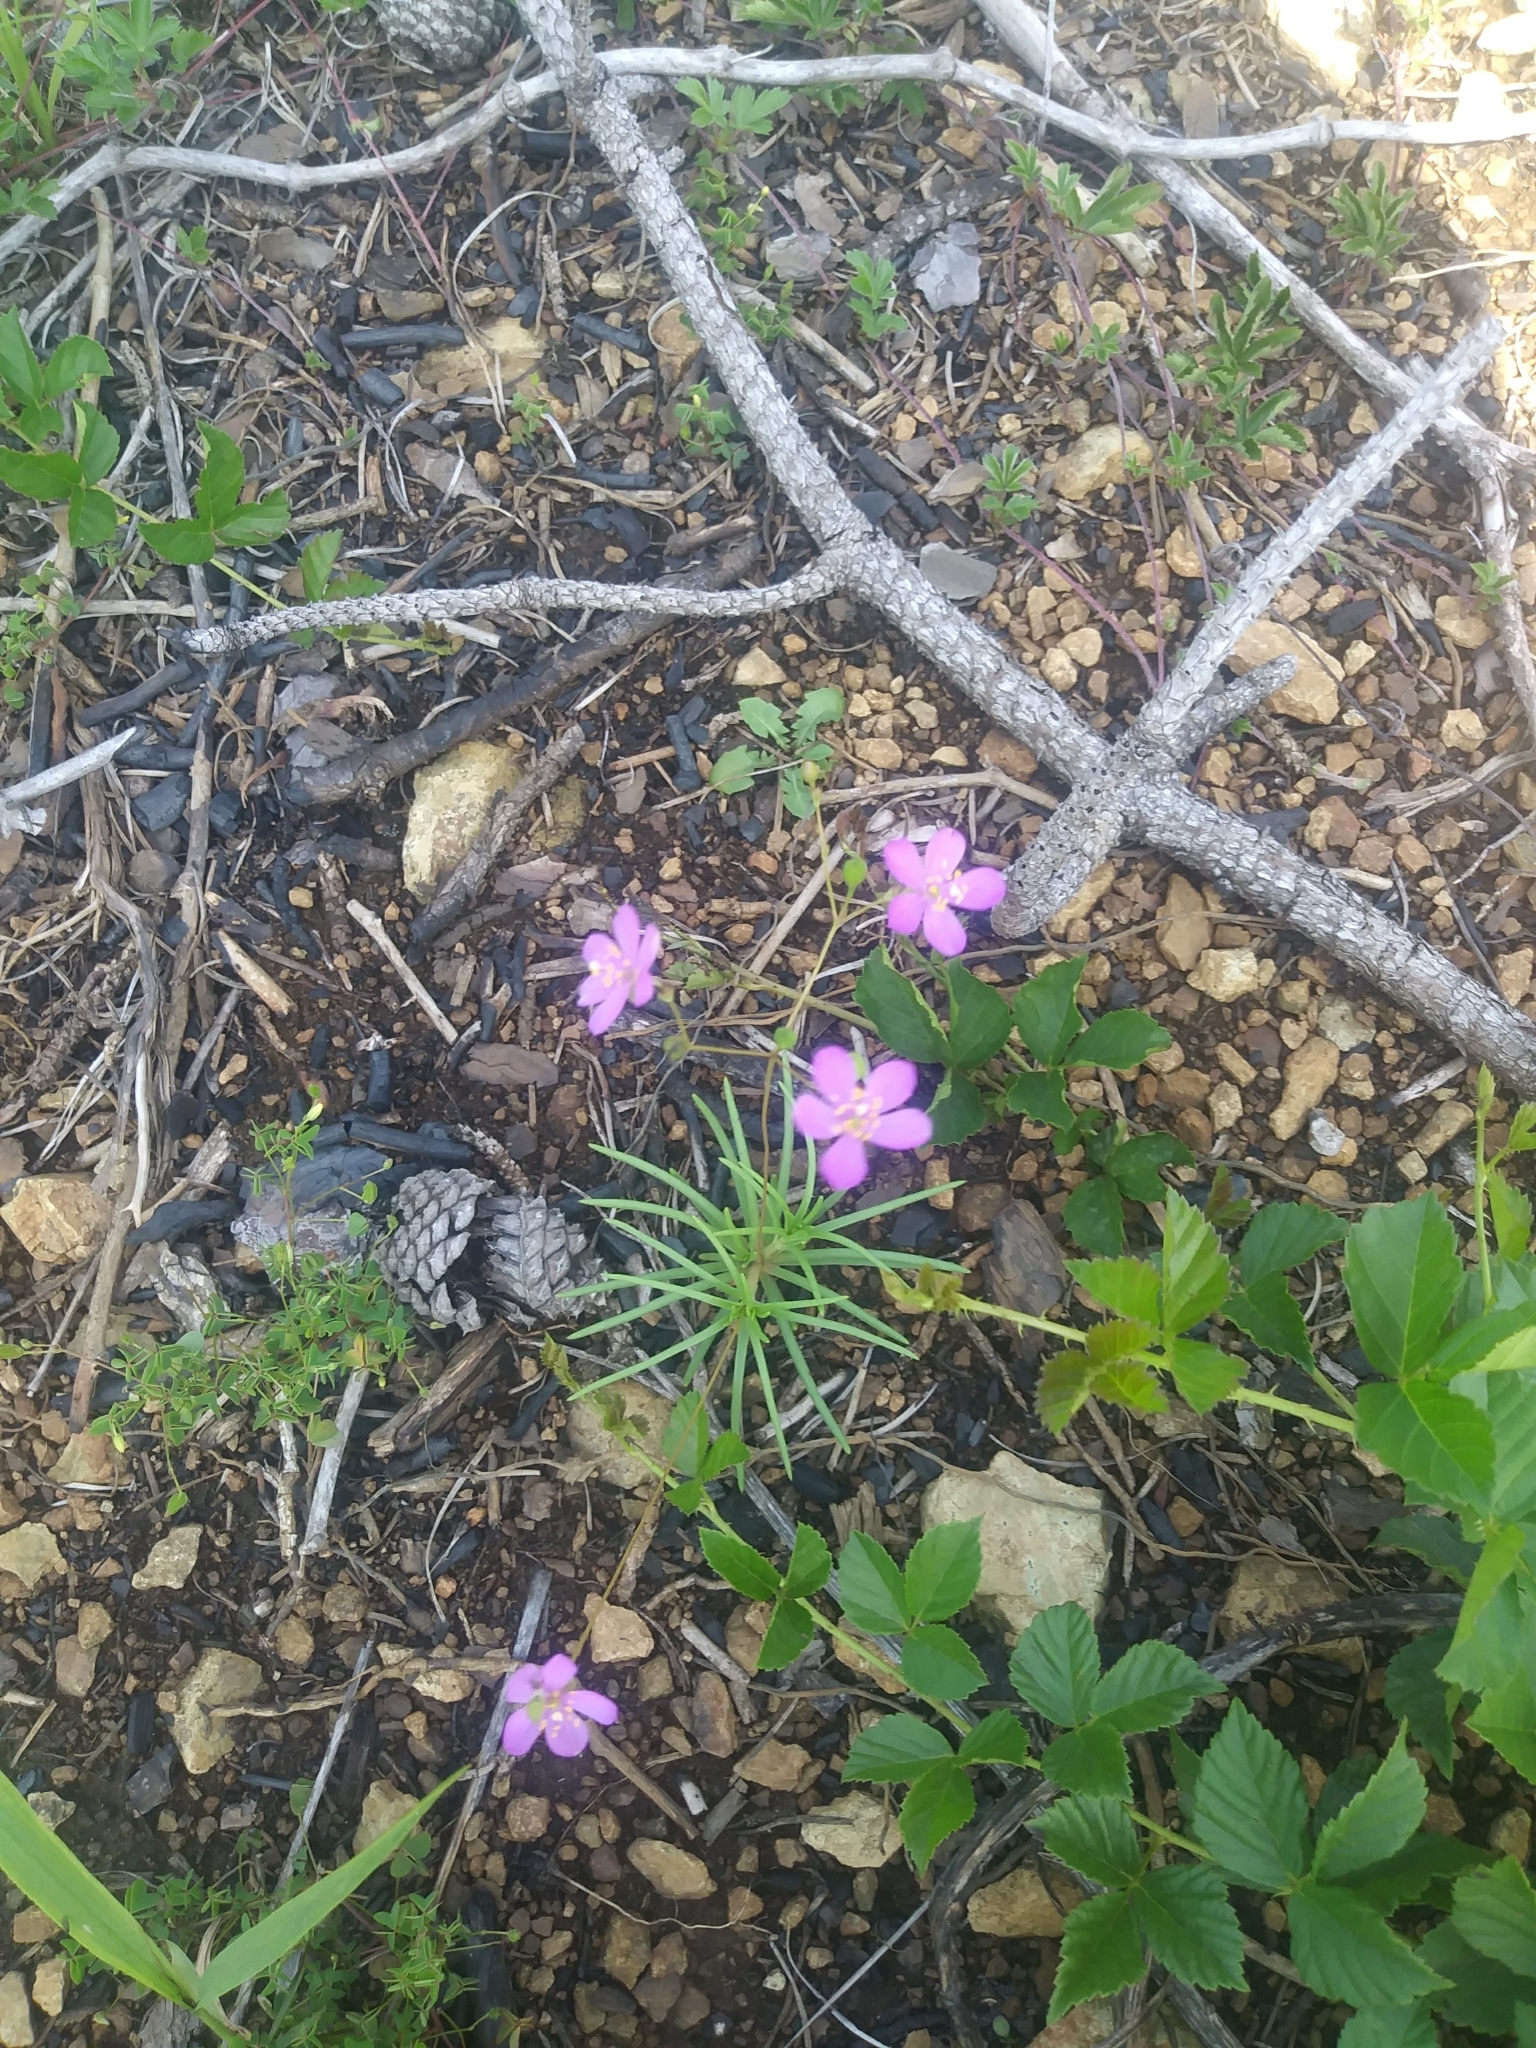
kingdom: Plantae
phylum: Tracheophyta
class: Magnoliopsida
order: Caryophyllales
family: Montiaceae
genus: Phemeranthus
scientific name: Phemeranthus teretifolius
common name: Quill fameflower
